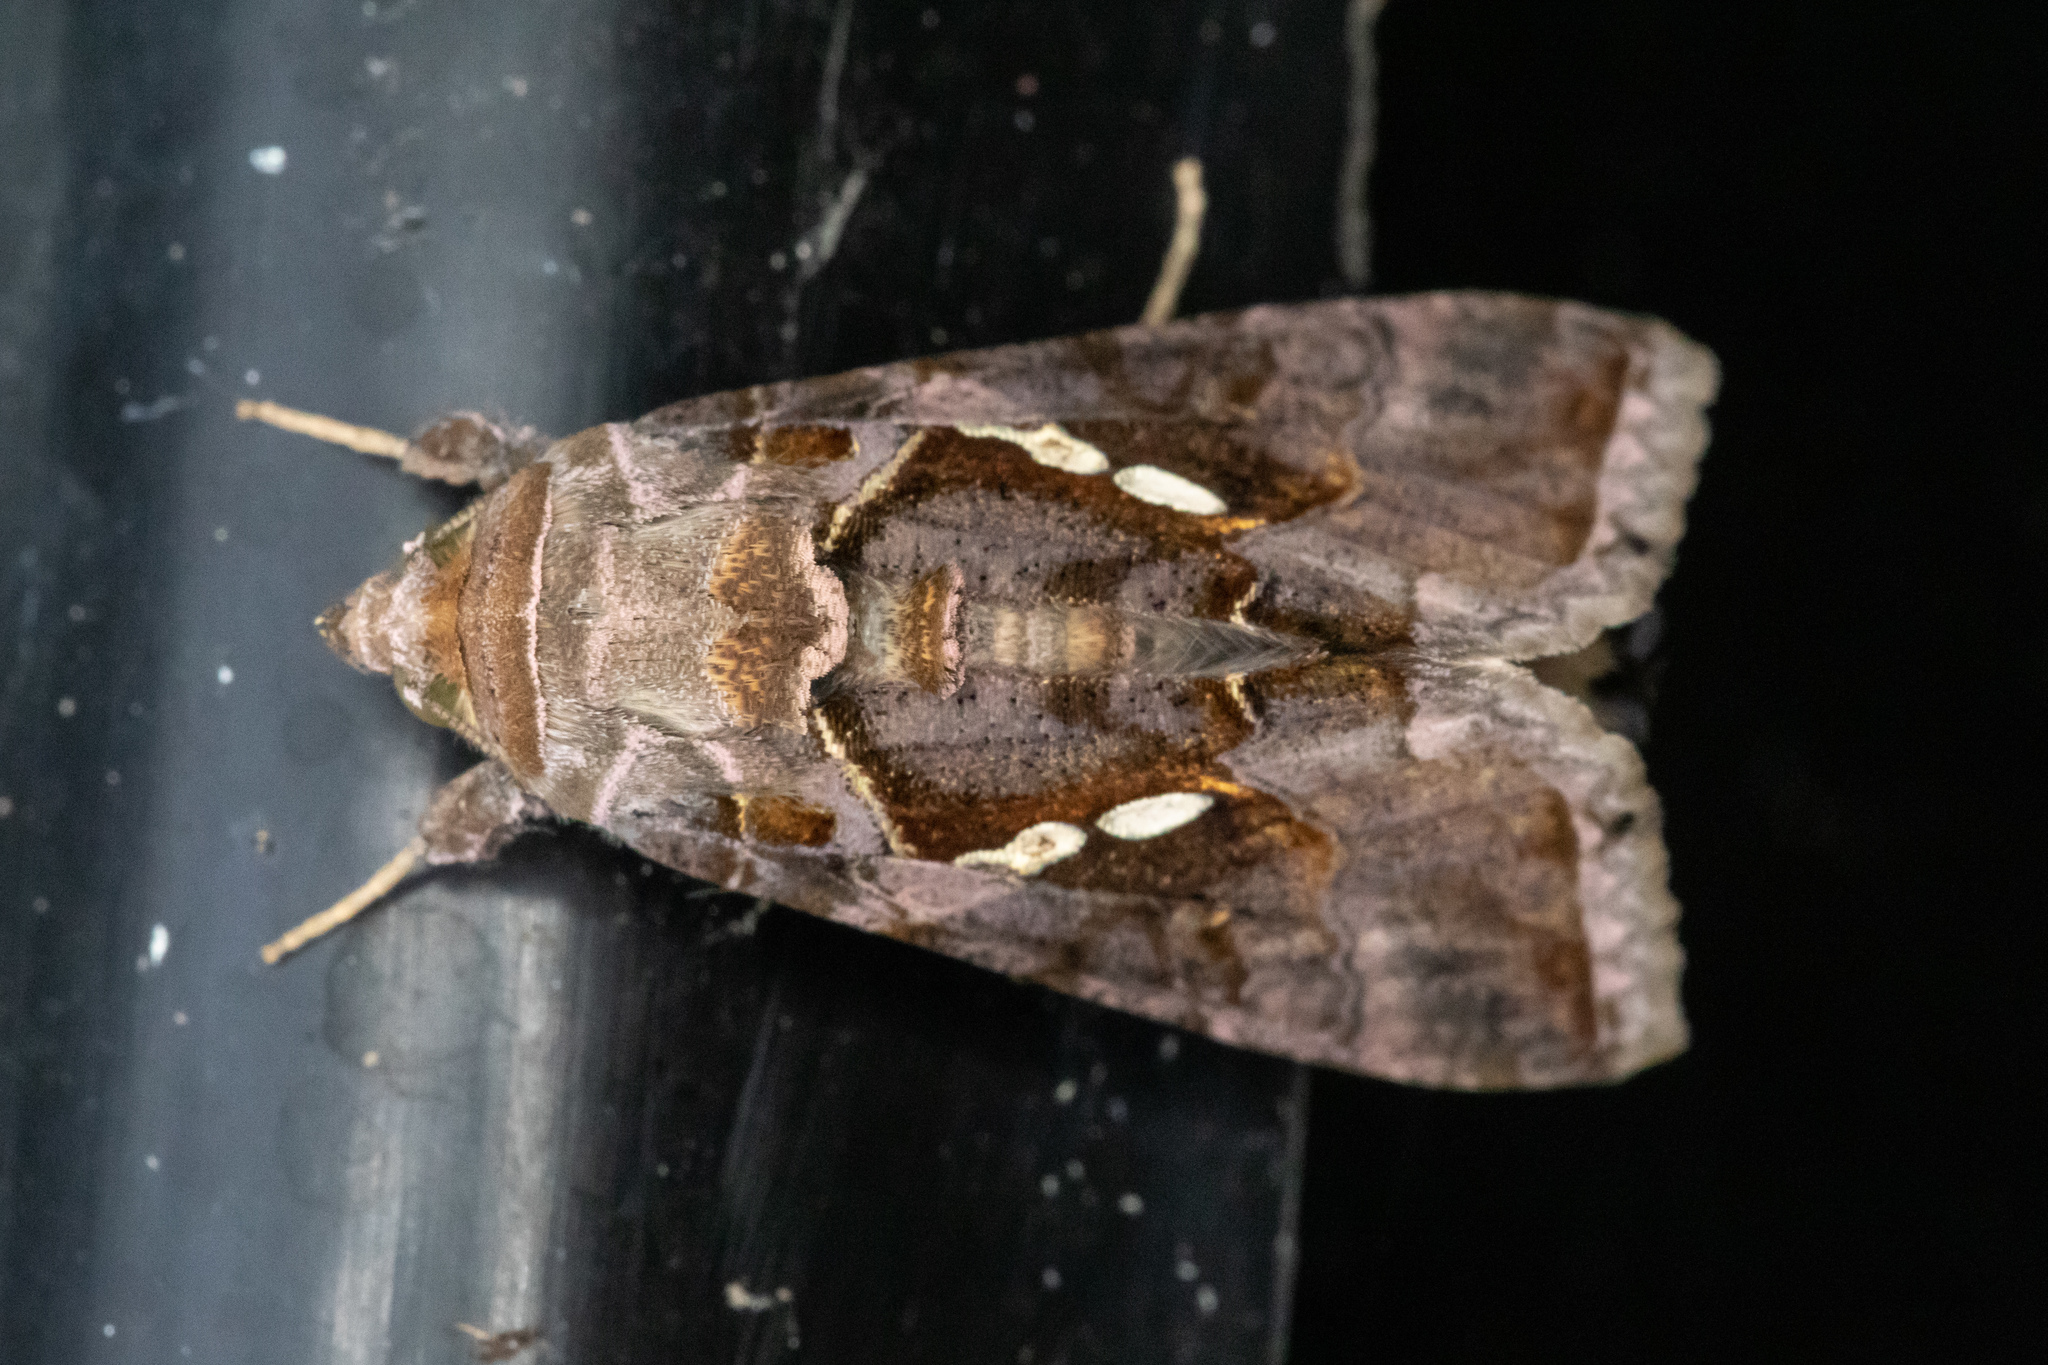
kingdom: Animalia
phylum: Arthropoda
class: Insecta
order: Lepidoptera
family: Noctuidae
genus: Chrysodeixis
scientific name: Chrysodeixis eriosoma
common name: Green garden looper
